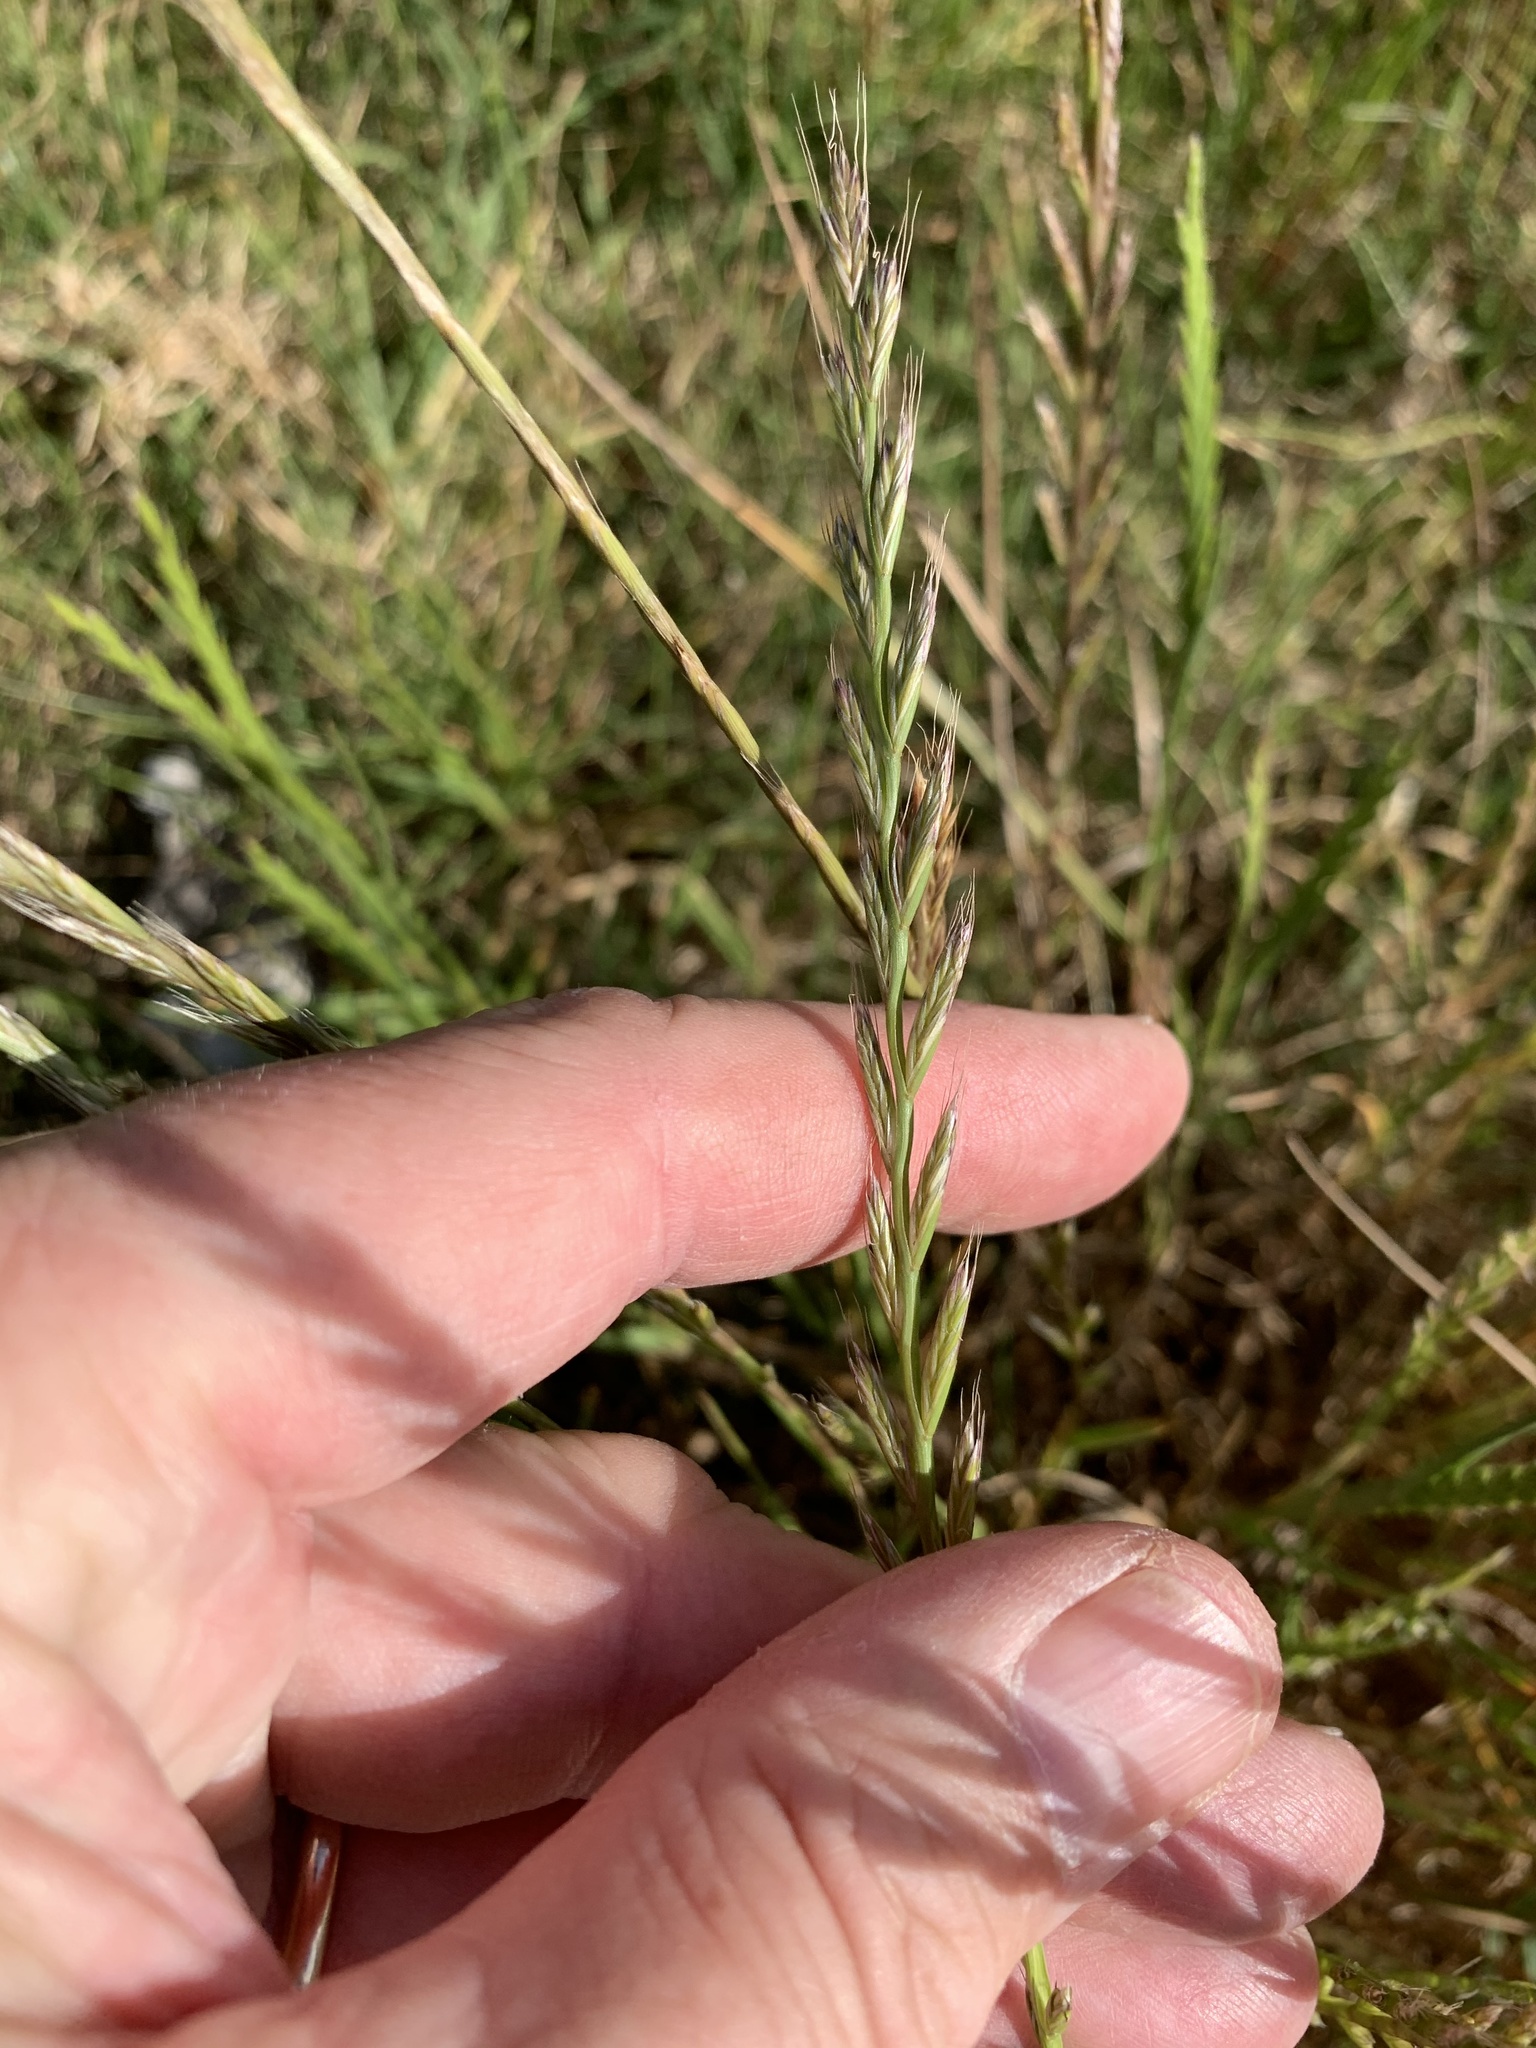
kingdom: Plantae
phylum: Tracheophyta
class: Liliopsida
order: Poales
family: Poaceae
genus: Lolium
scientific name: Lolium multiflorum
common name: Annual ryegrass
